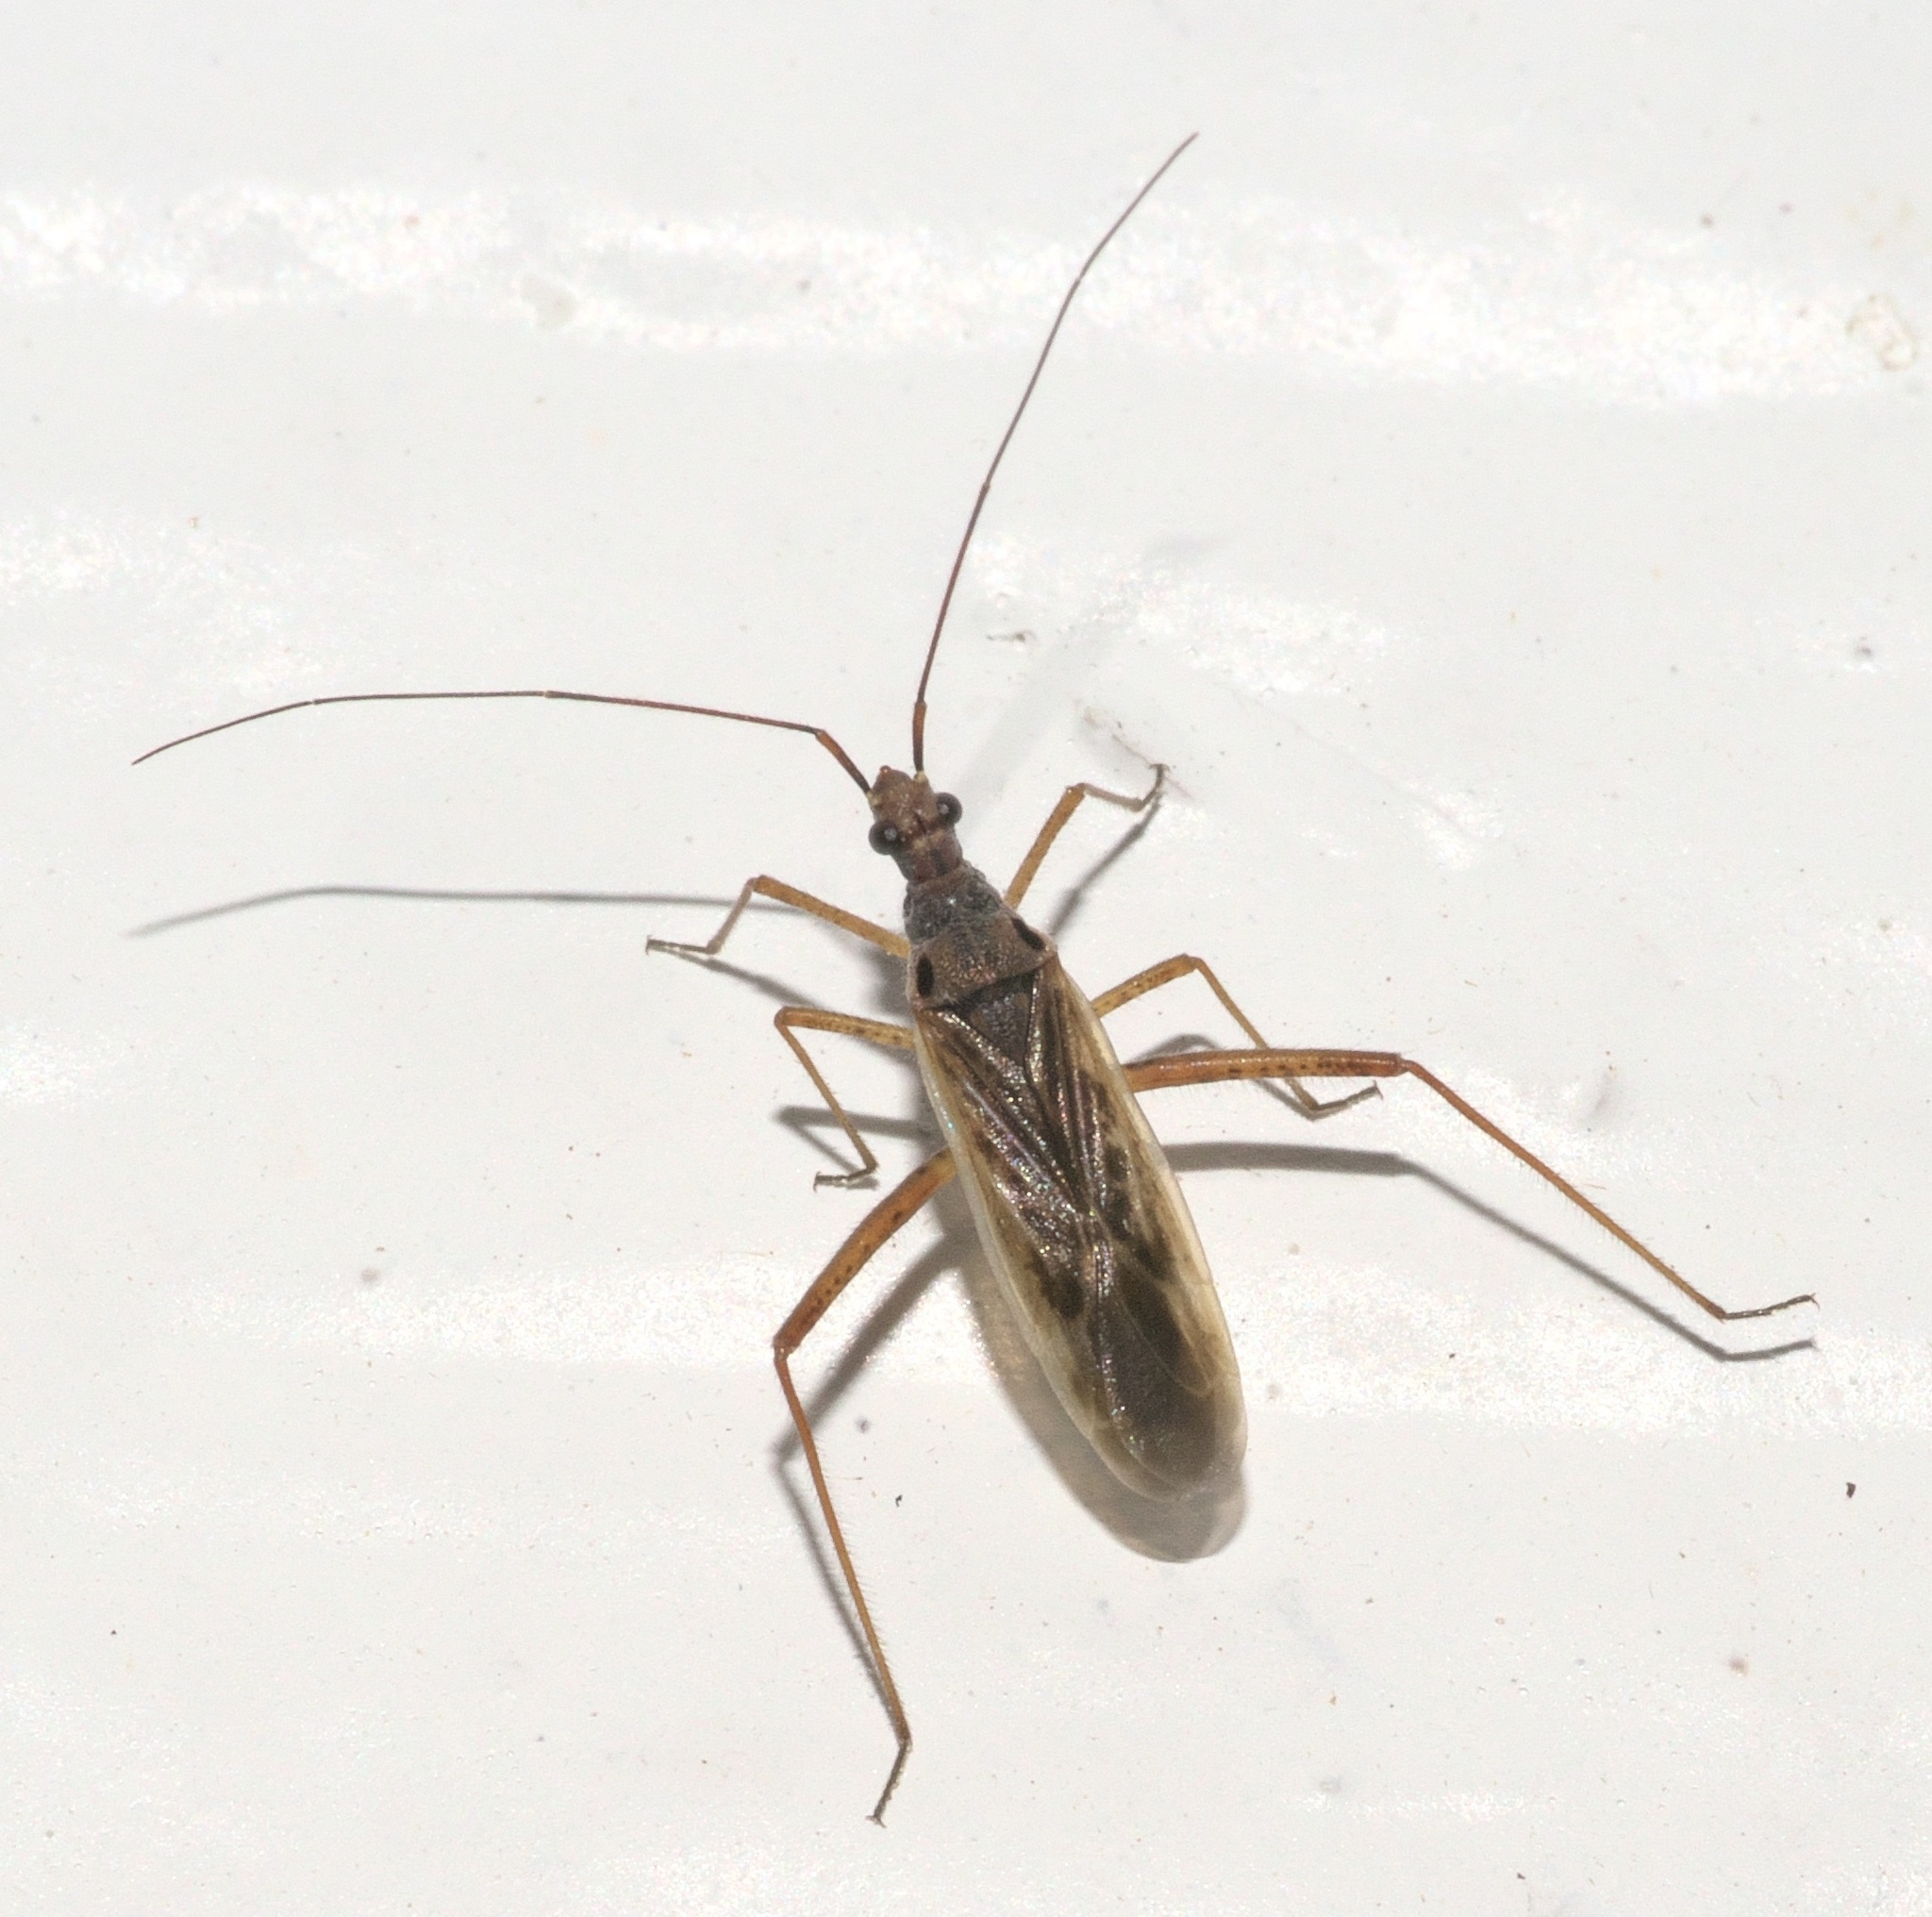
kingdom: Animalia
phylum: Arthropoda
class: Insecta
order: Hemiptera
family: Miridae
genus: Collaria
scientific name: Collaria oculata
